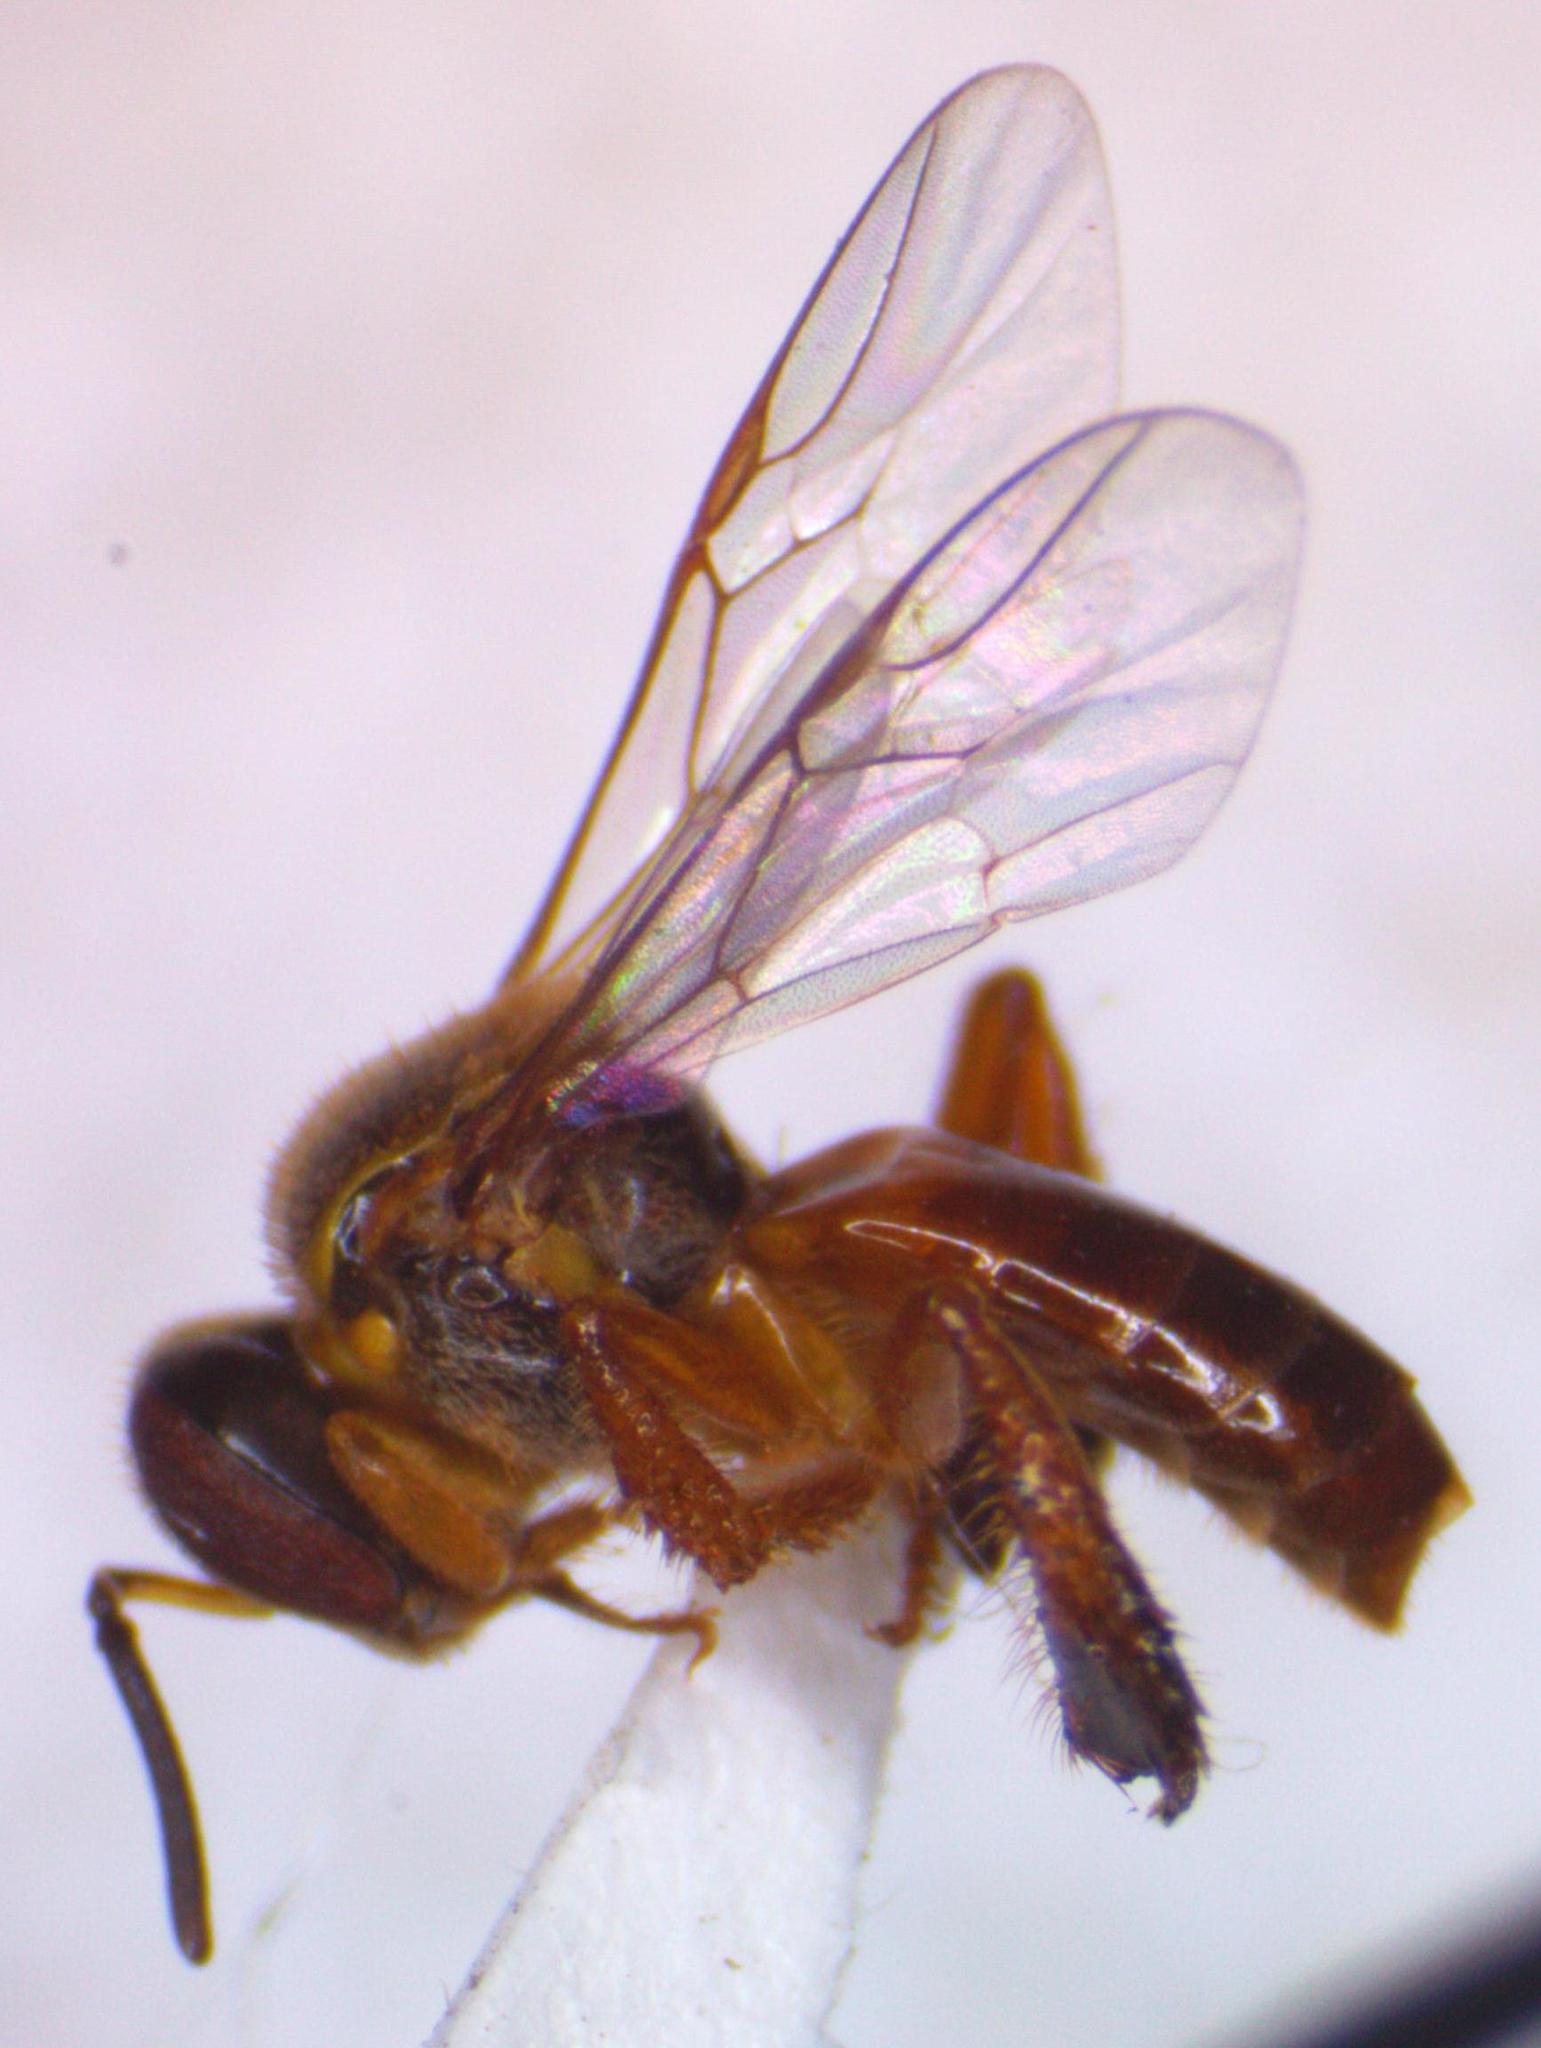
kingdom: Animalia
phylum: Arthropoda
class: Insecta
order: Hymenoptera
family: Apidae
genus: Tetragonisca
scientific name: Tetragonisca angustula
